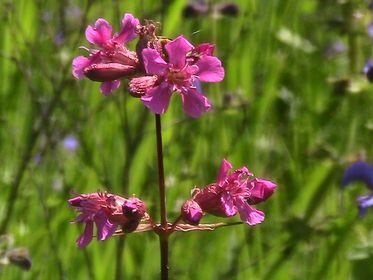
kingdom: Plantae
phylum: Tracheophyta
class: Magnoliopsida
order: Caryophyllales
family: Caryophyllaceae
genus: Viscaria
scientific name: Viscaria vulgaris
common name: Clammy campion
